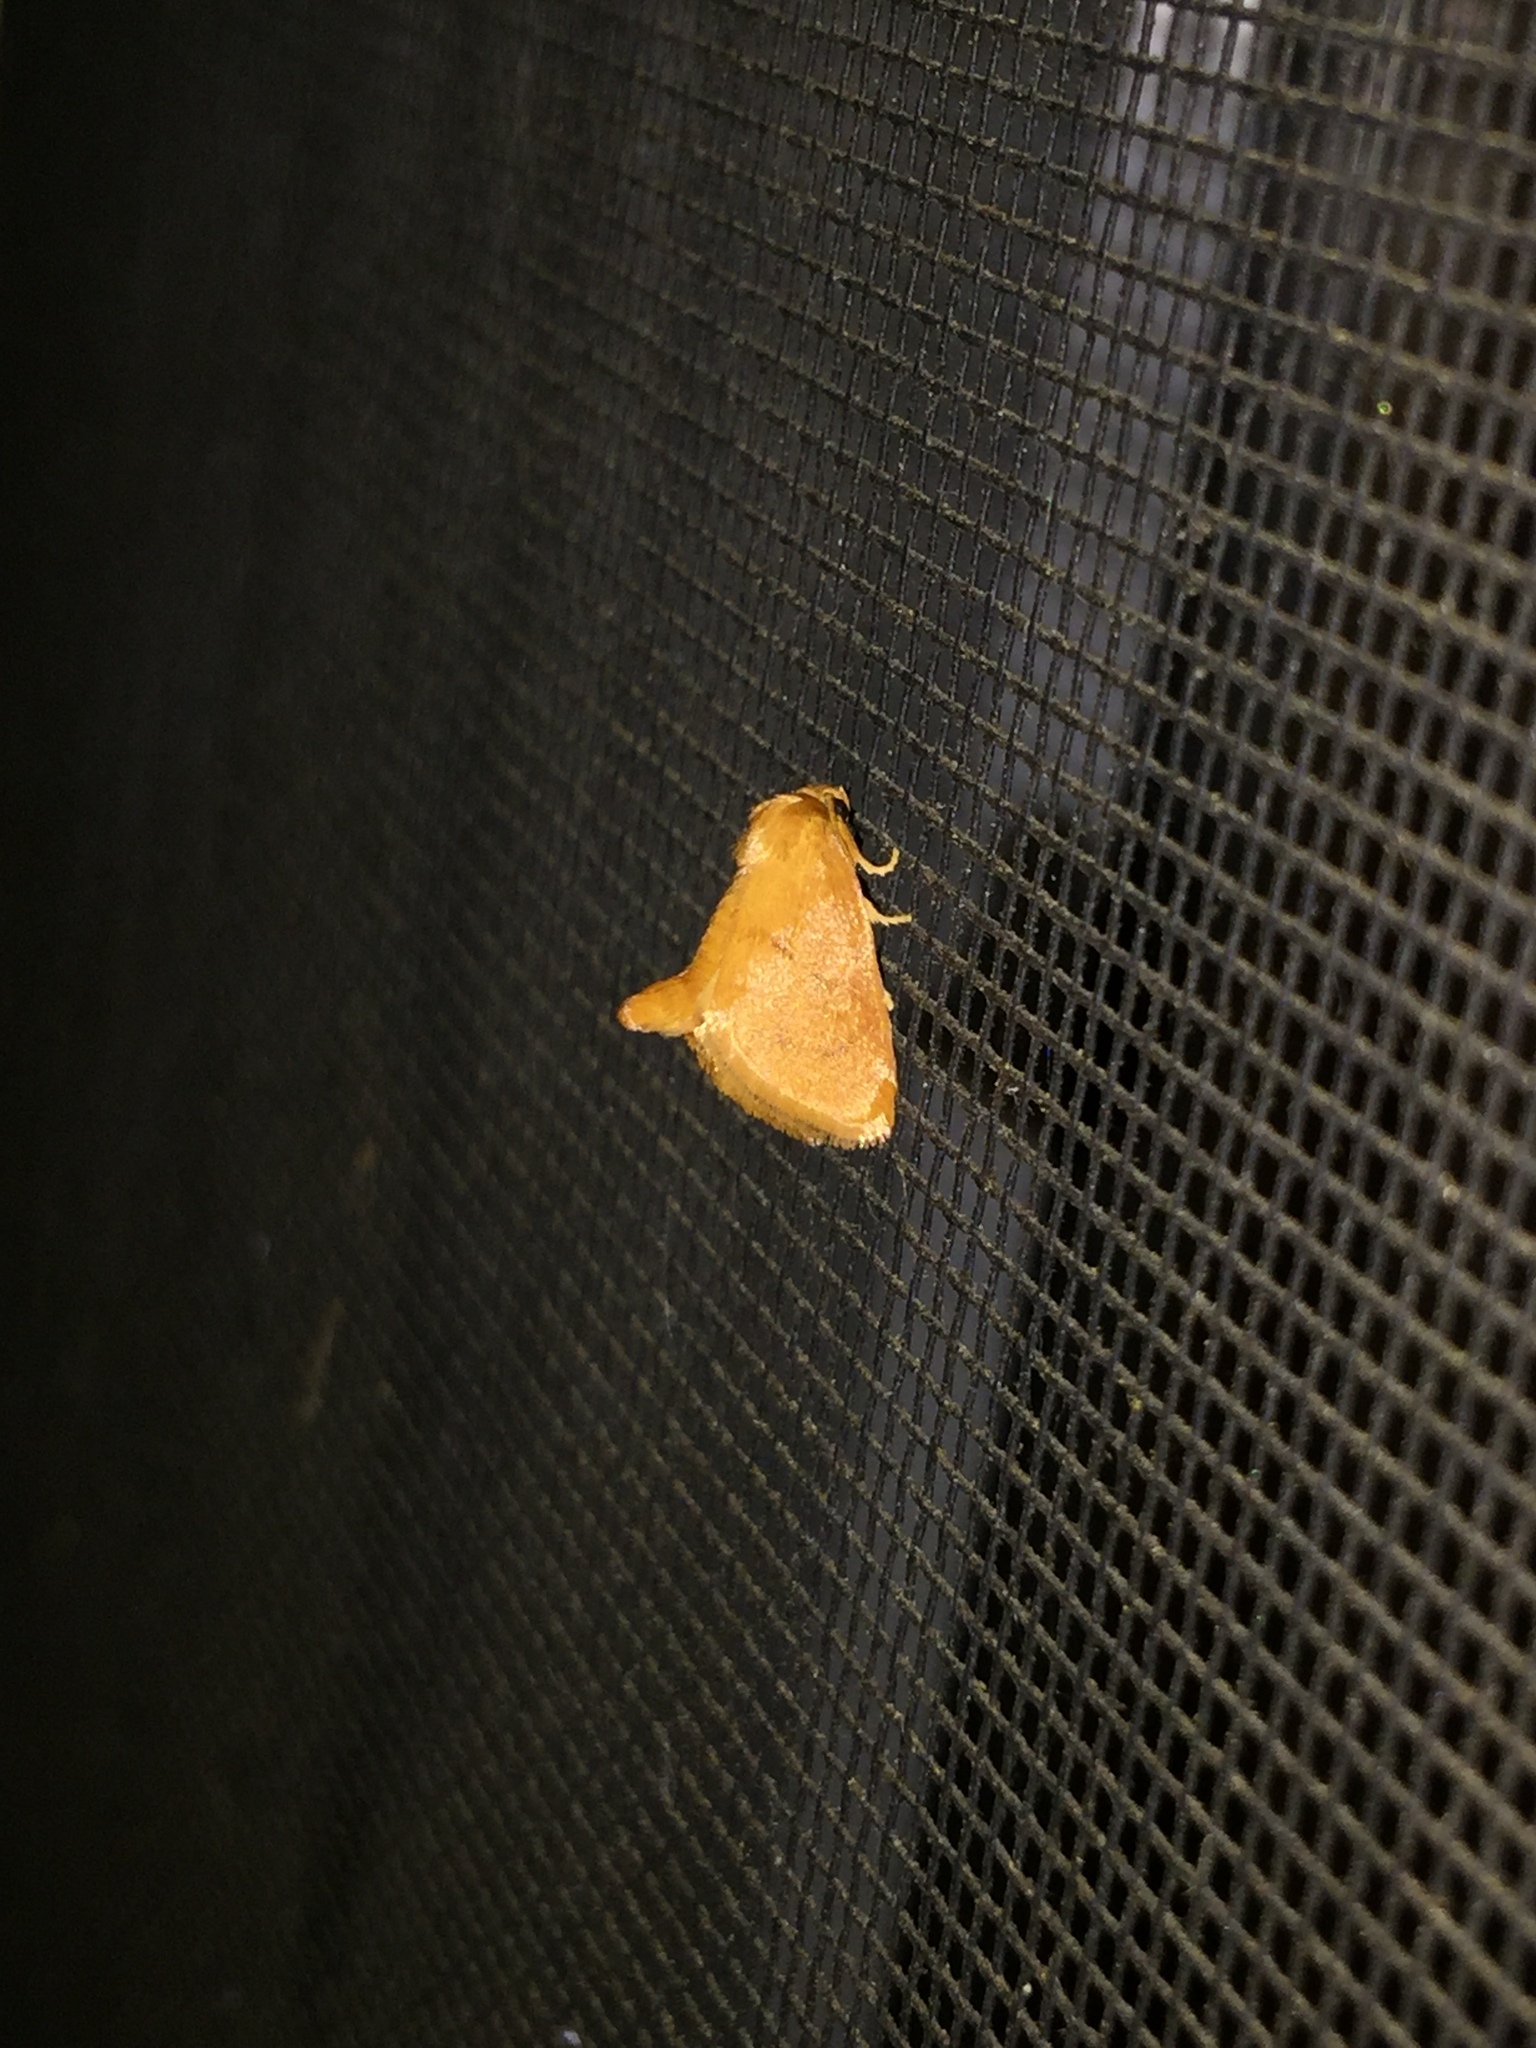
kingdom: Animalia
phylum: Arthropoda
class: Insecta
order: Lepidoptera
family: Limacodidae
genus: Tortricidia
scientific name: Tortricidia pallida
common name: Red-crossed button slug moth
